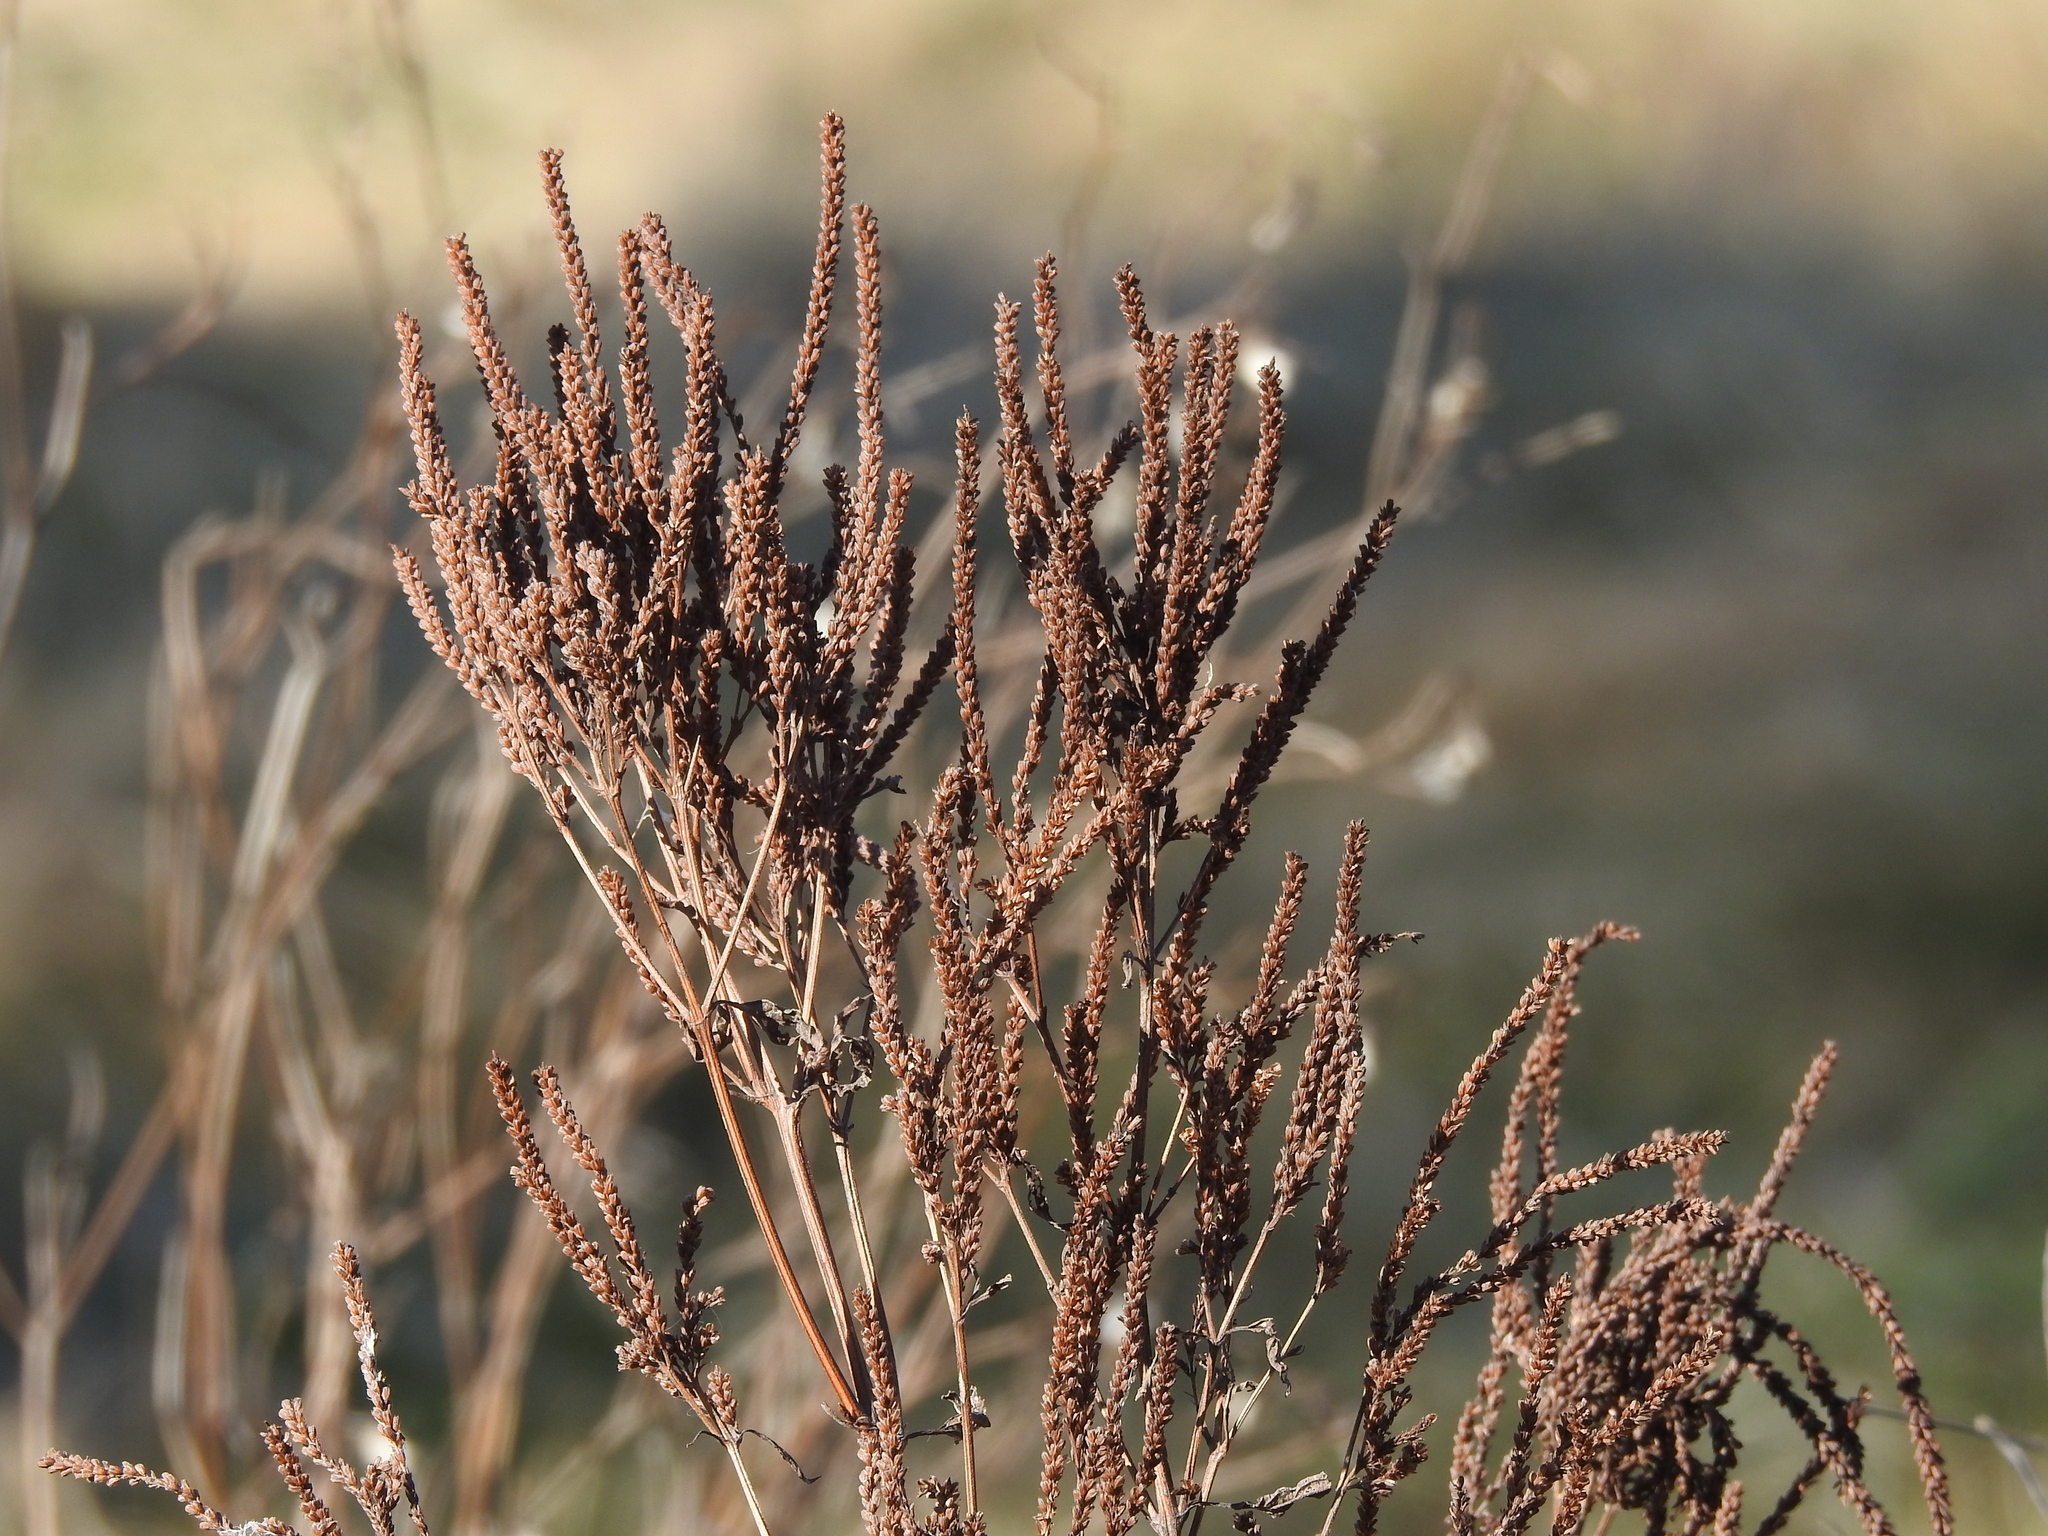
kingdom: Plantae
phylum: Tracheophyta
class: Magnoliopsida
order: Lamiales
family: Verbenaceae
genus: Verbena
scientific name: Verbena hastata
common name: American blue vervain
